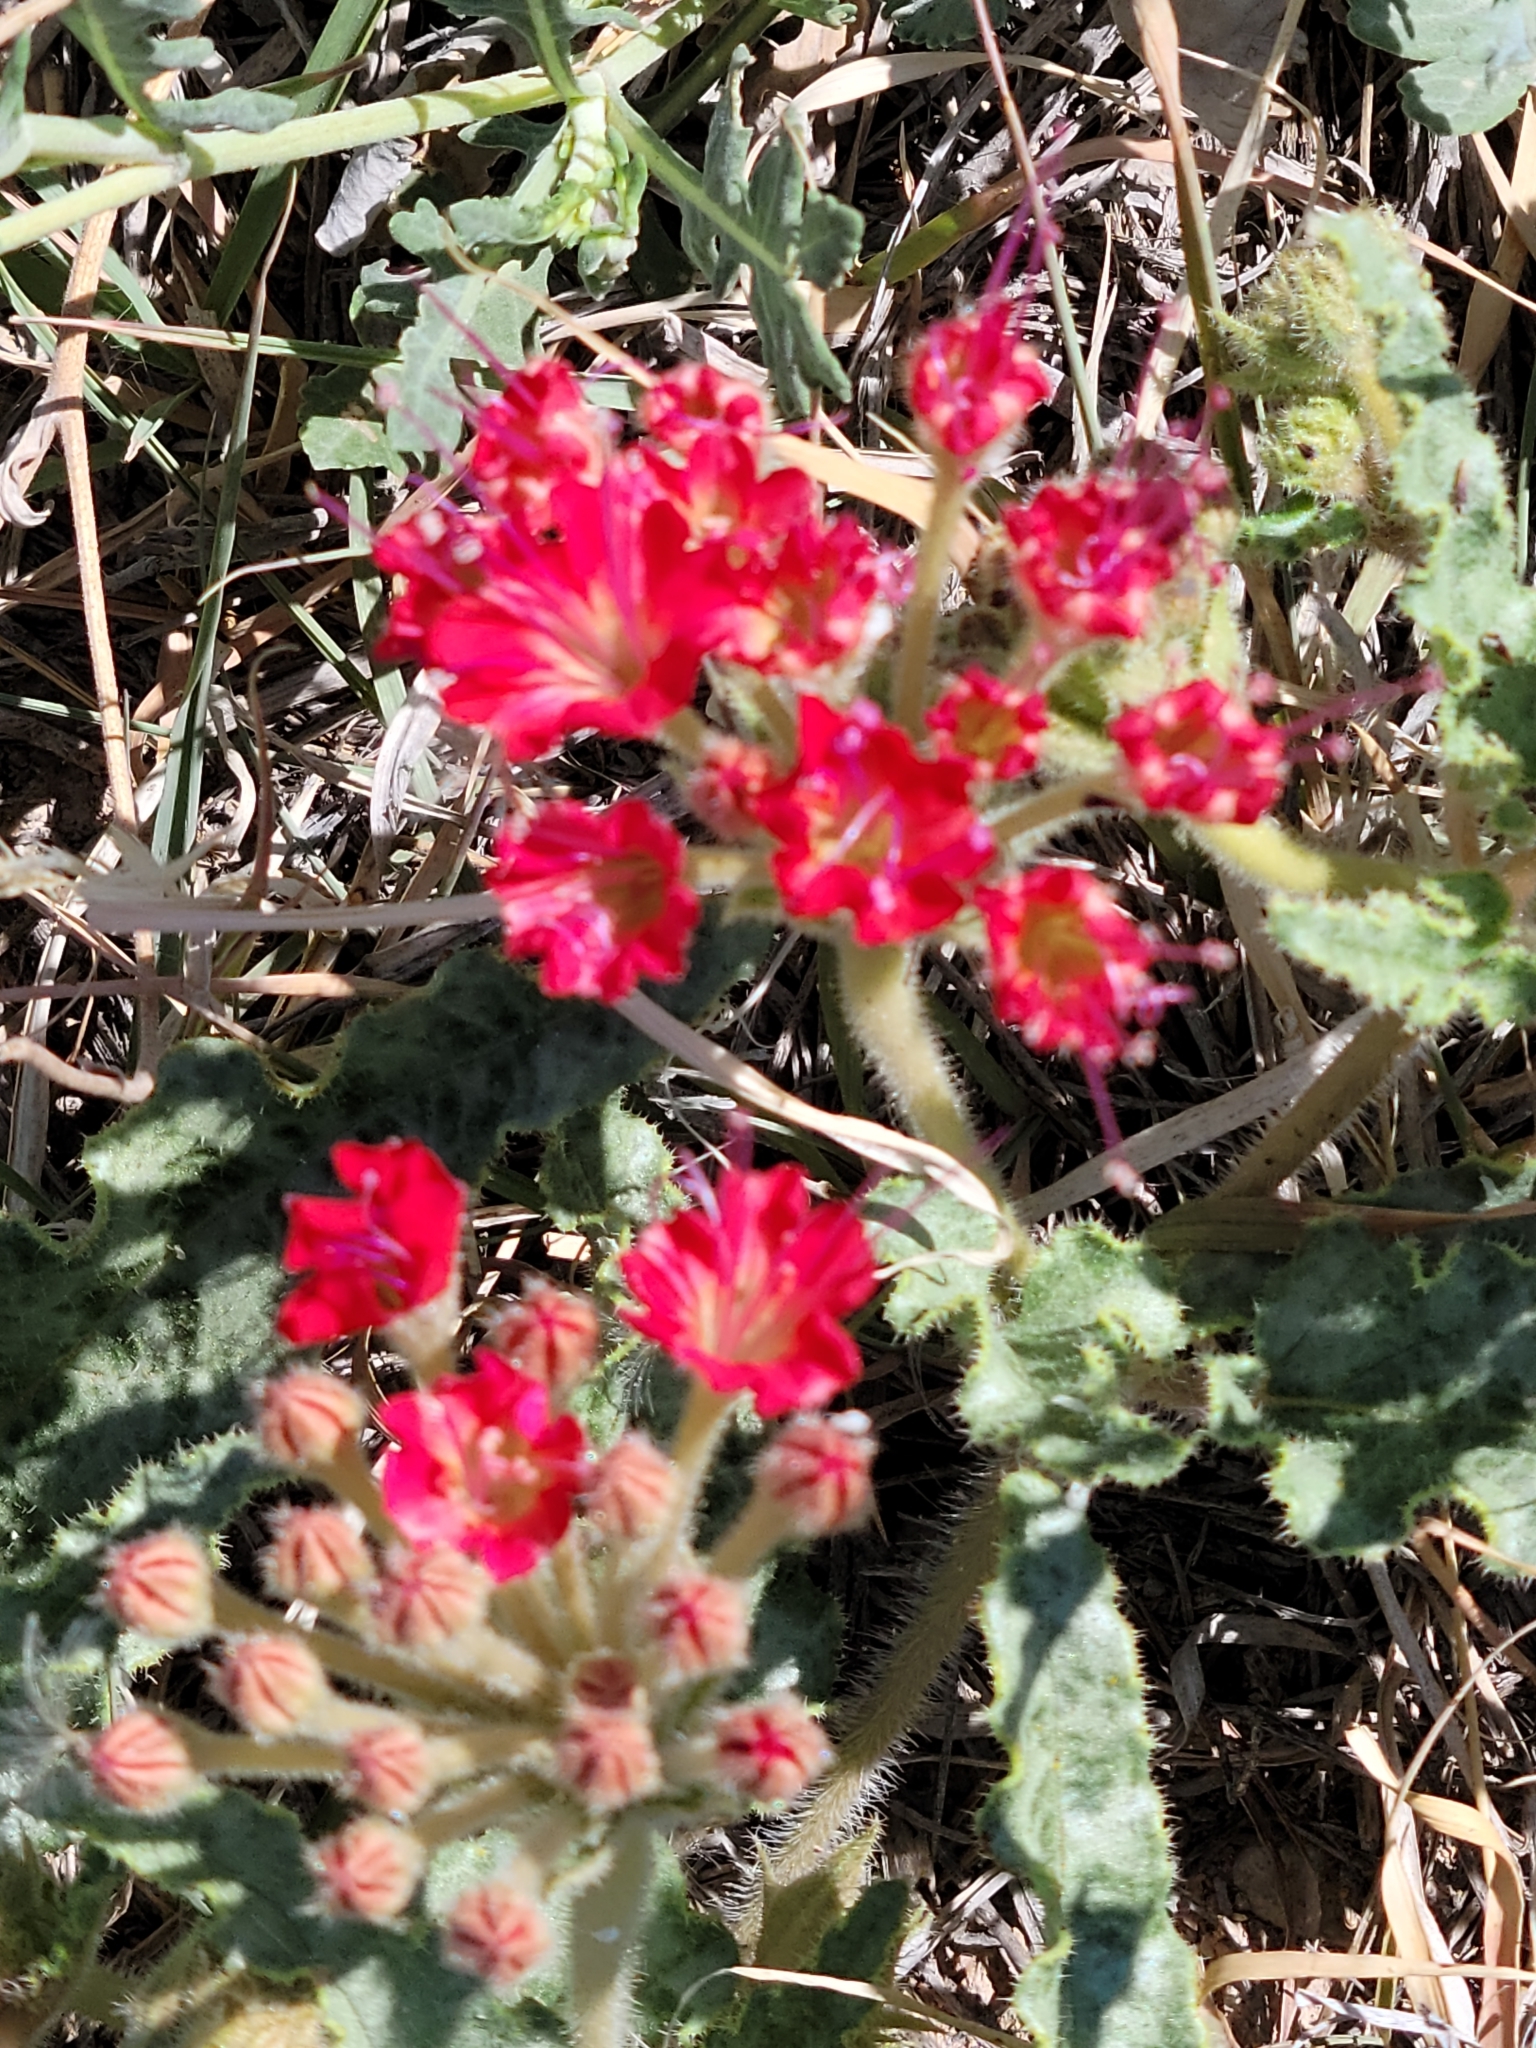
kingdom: Plantae
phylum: Tracheophyta
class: Magnoliopsida
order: Caryophyllales
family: Nyctaginaceae
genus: Nyctaginia
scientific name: Nyctaginia capitata
